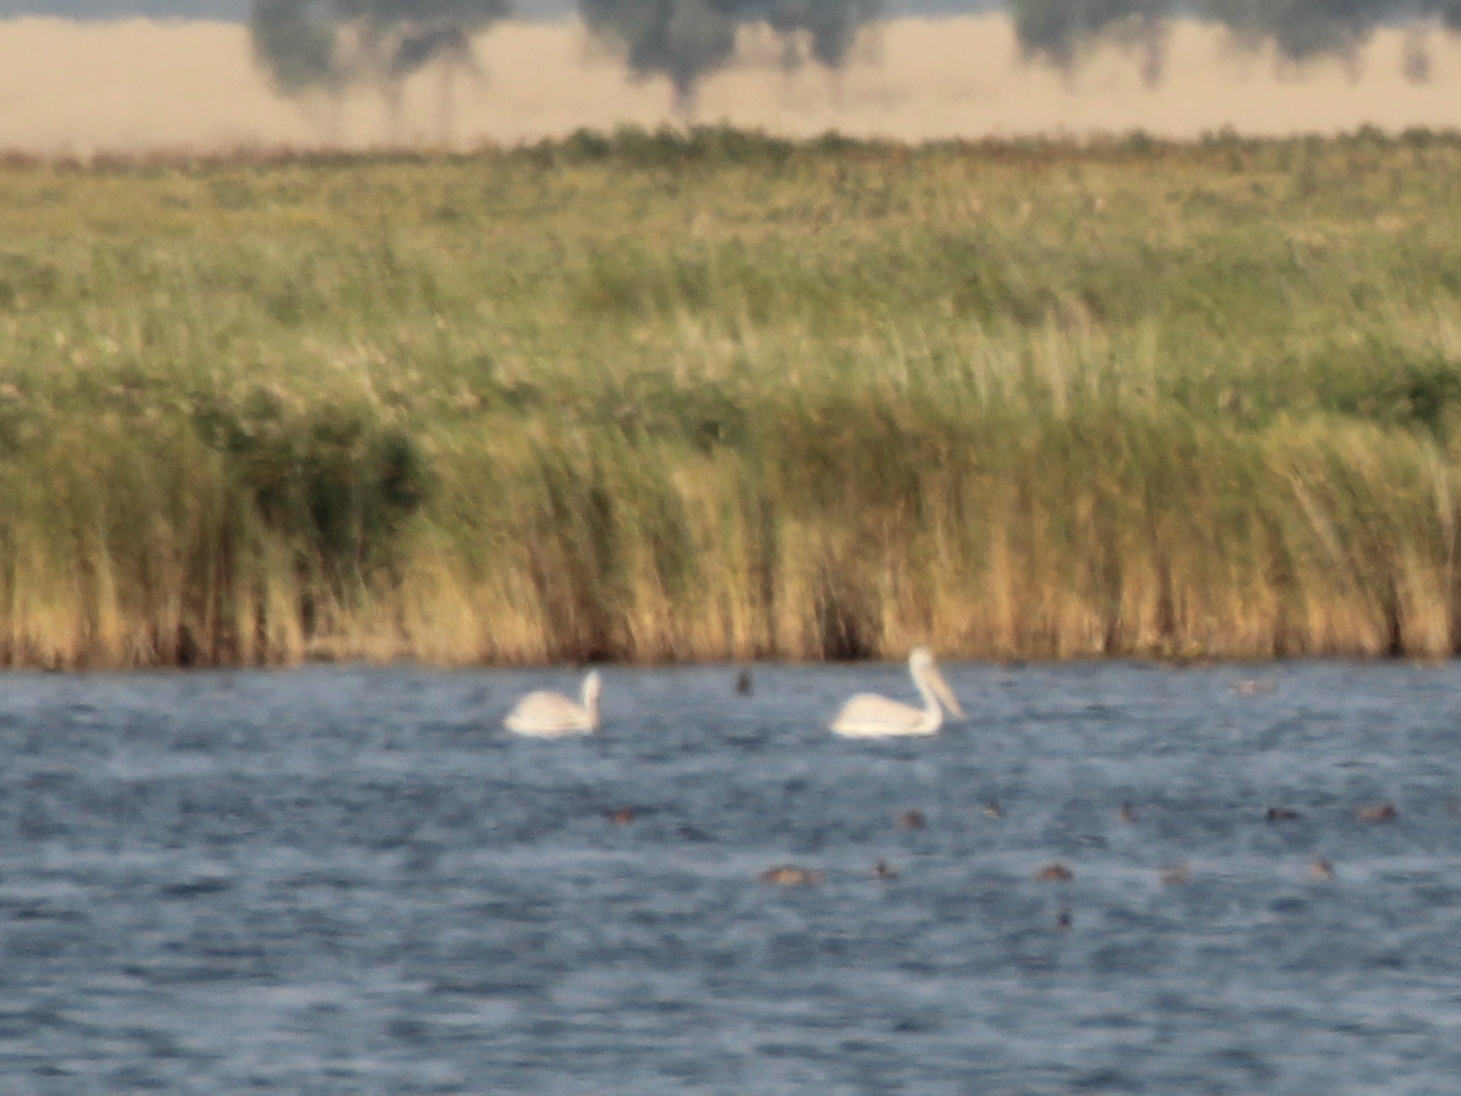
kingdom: Animalia
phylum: Chordata
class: Aves
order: Pelecaniformes
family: Pelecanidae
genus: Pelecanus
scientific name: Pelecanus crispus
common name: Dalmatian pelican
